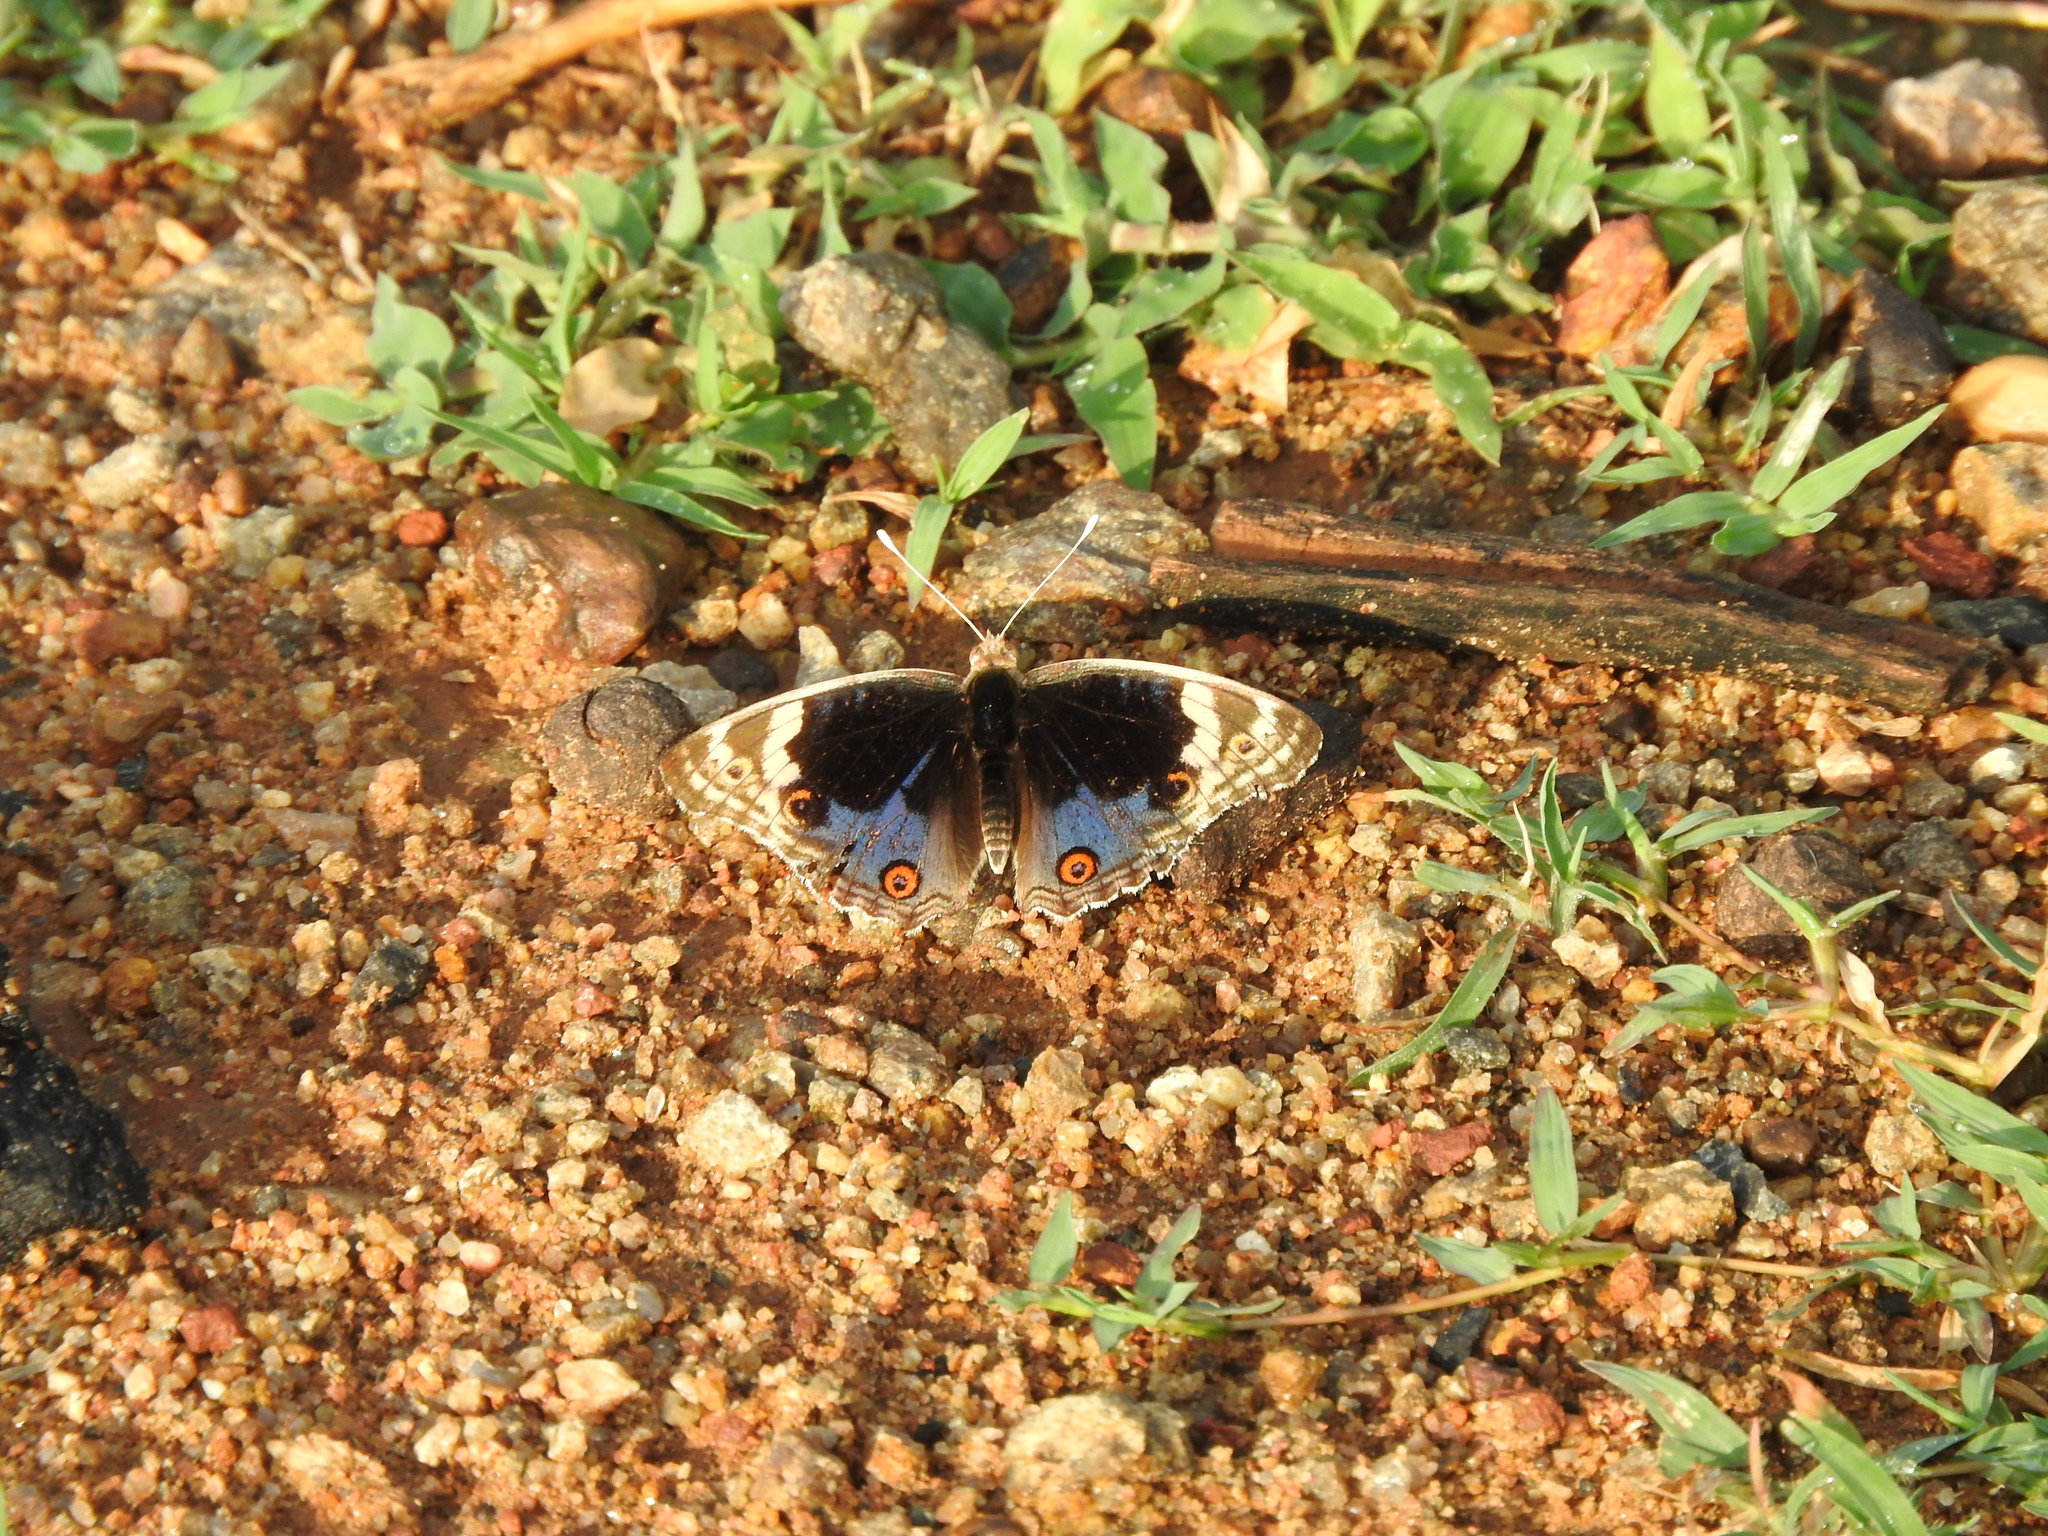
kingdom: Animalia
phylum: Arthropoda
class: Insecta
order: Lepidoptera
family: Nymphalidae
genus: Junonia
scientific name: Junonia orithya
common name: Blue pansy
